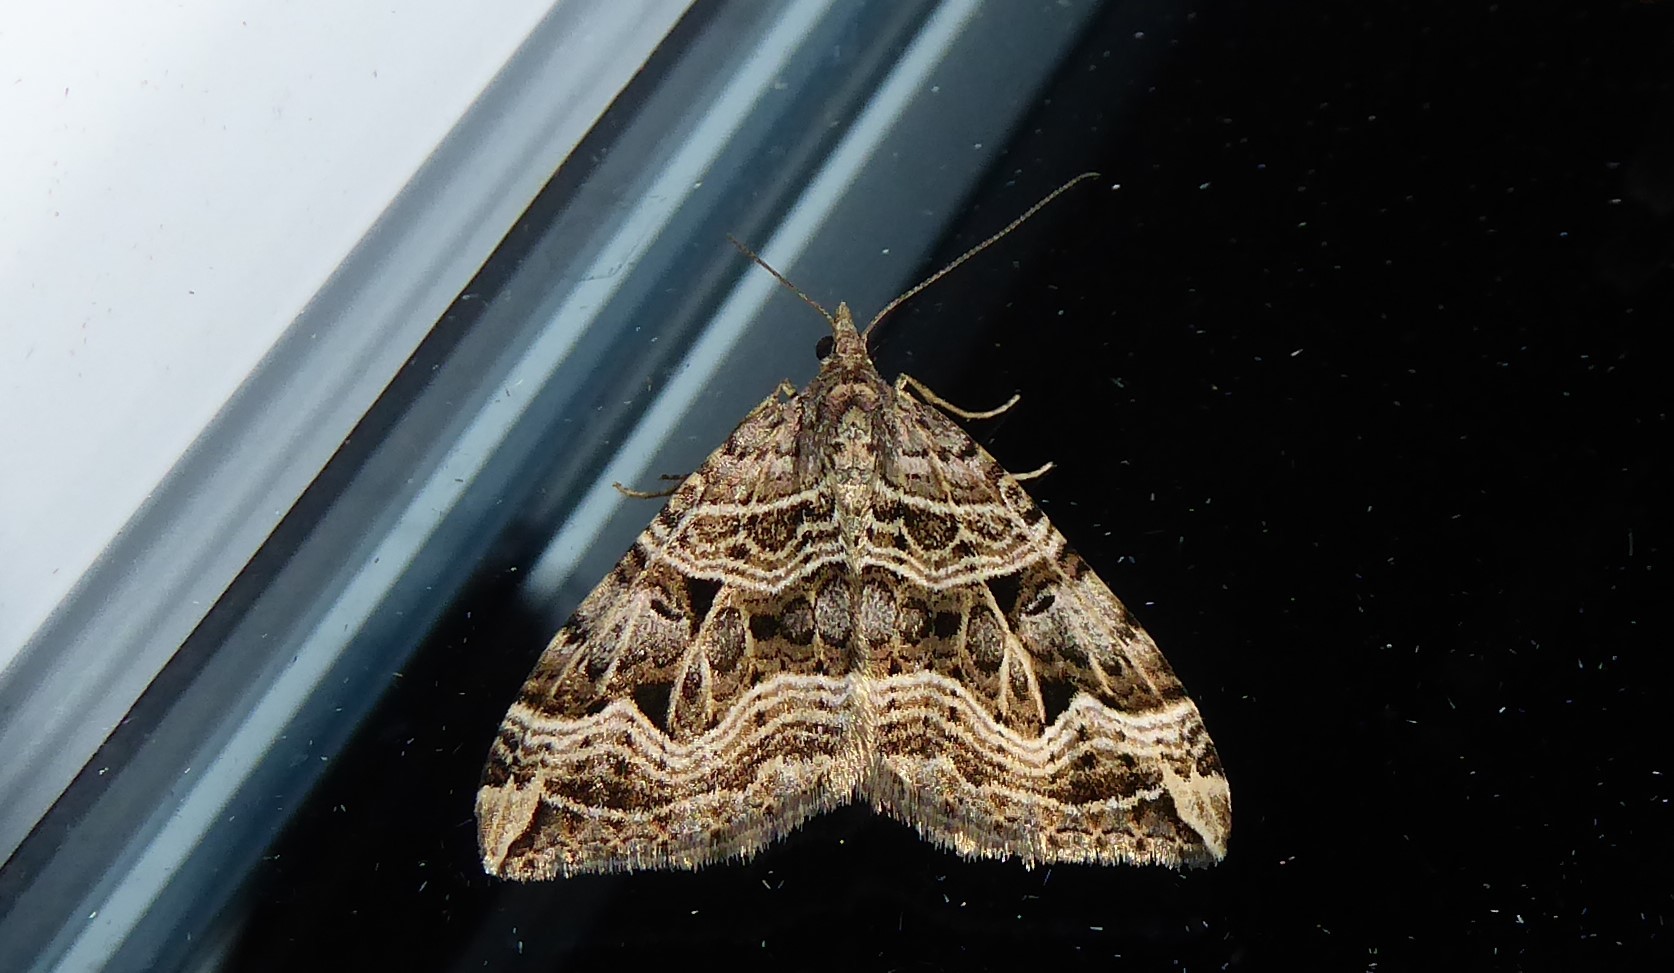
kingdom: Animalia
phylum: Arthropoda
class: Insecta
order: Lepidoptera
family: Geometridae
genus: Xanthorhoe
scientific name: Xanthorhoe semifissata
